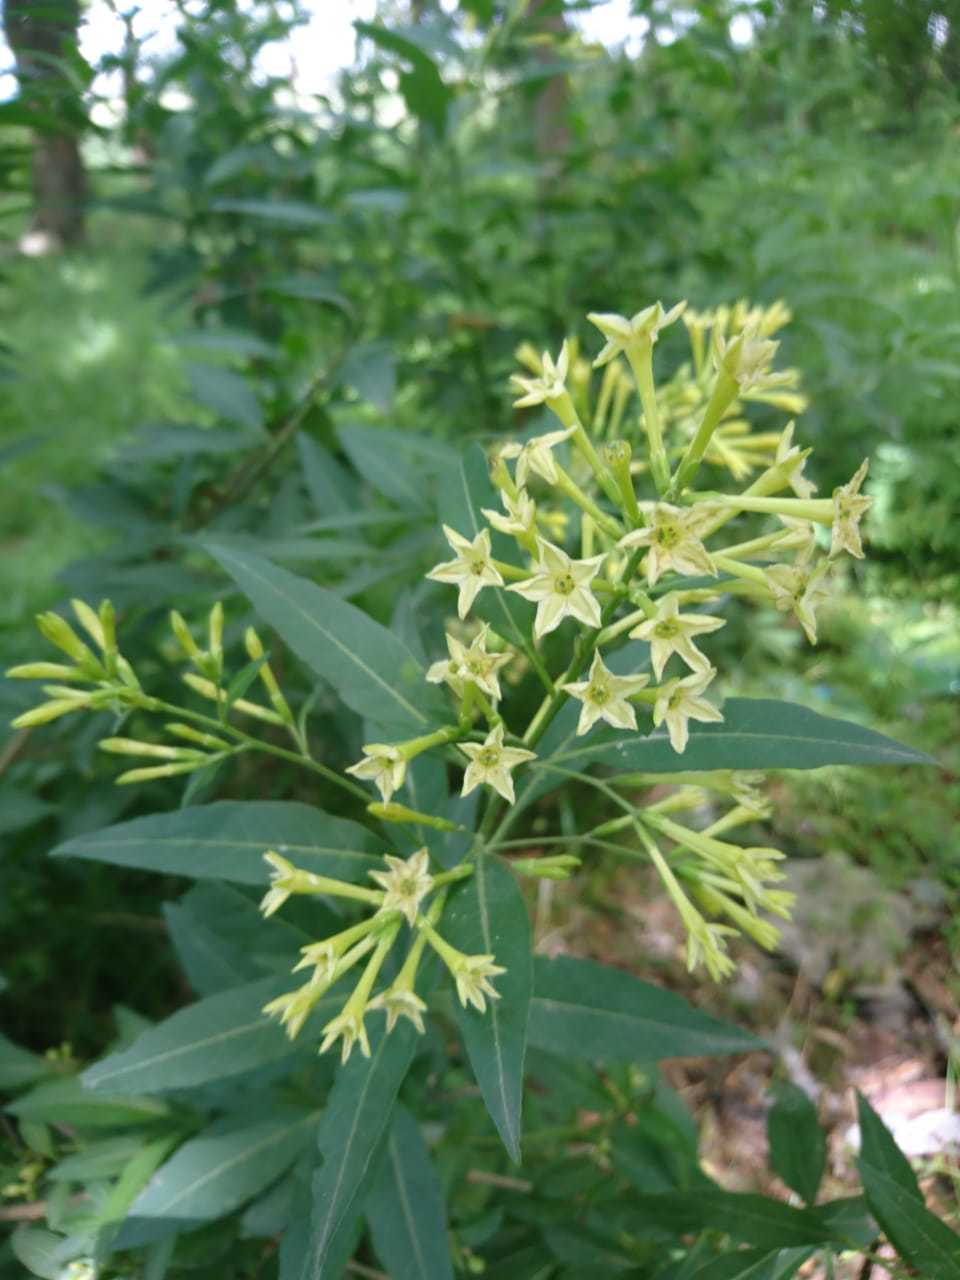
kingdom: Plantae
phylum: Tracheophyta
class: Magnoliopsida
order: Solanales
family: Solanaceae
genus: Cestrum
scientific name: Cestrum parqui
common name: Chilean cestrum
